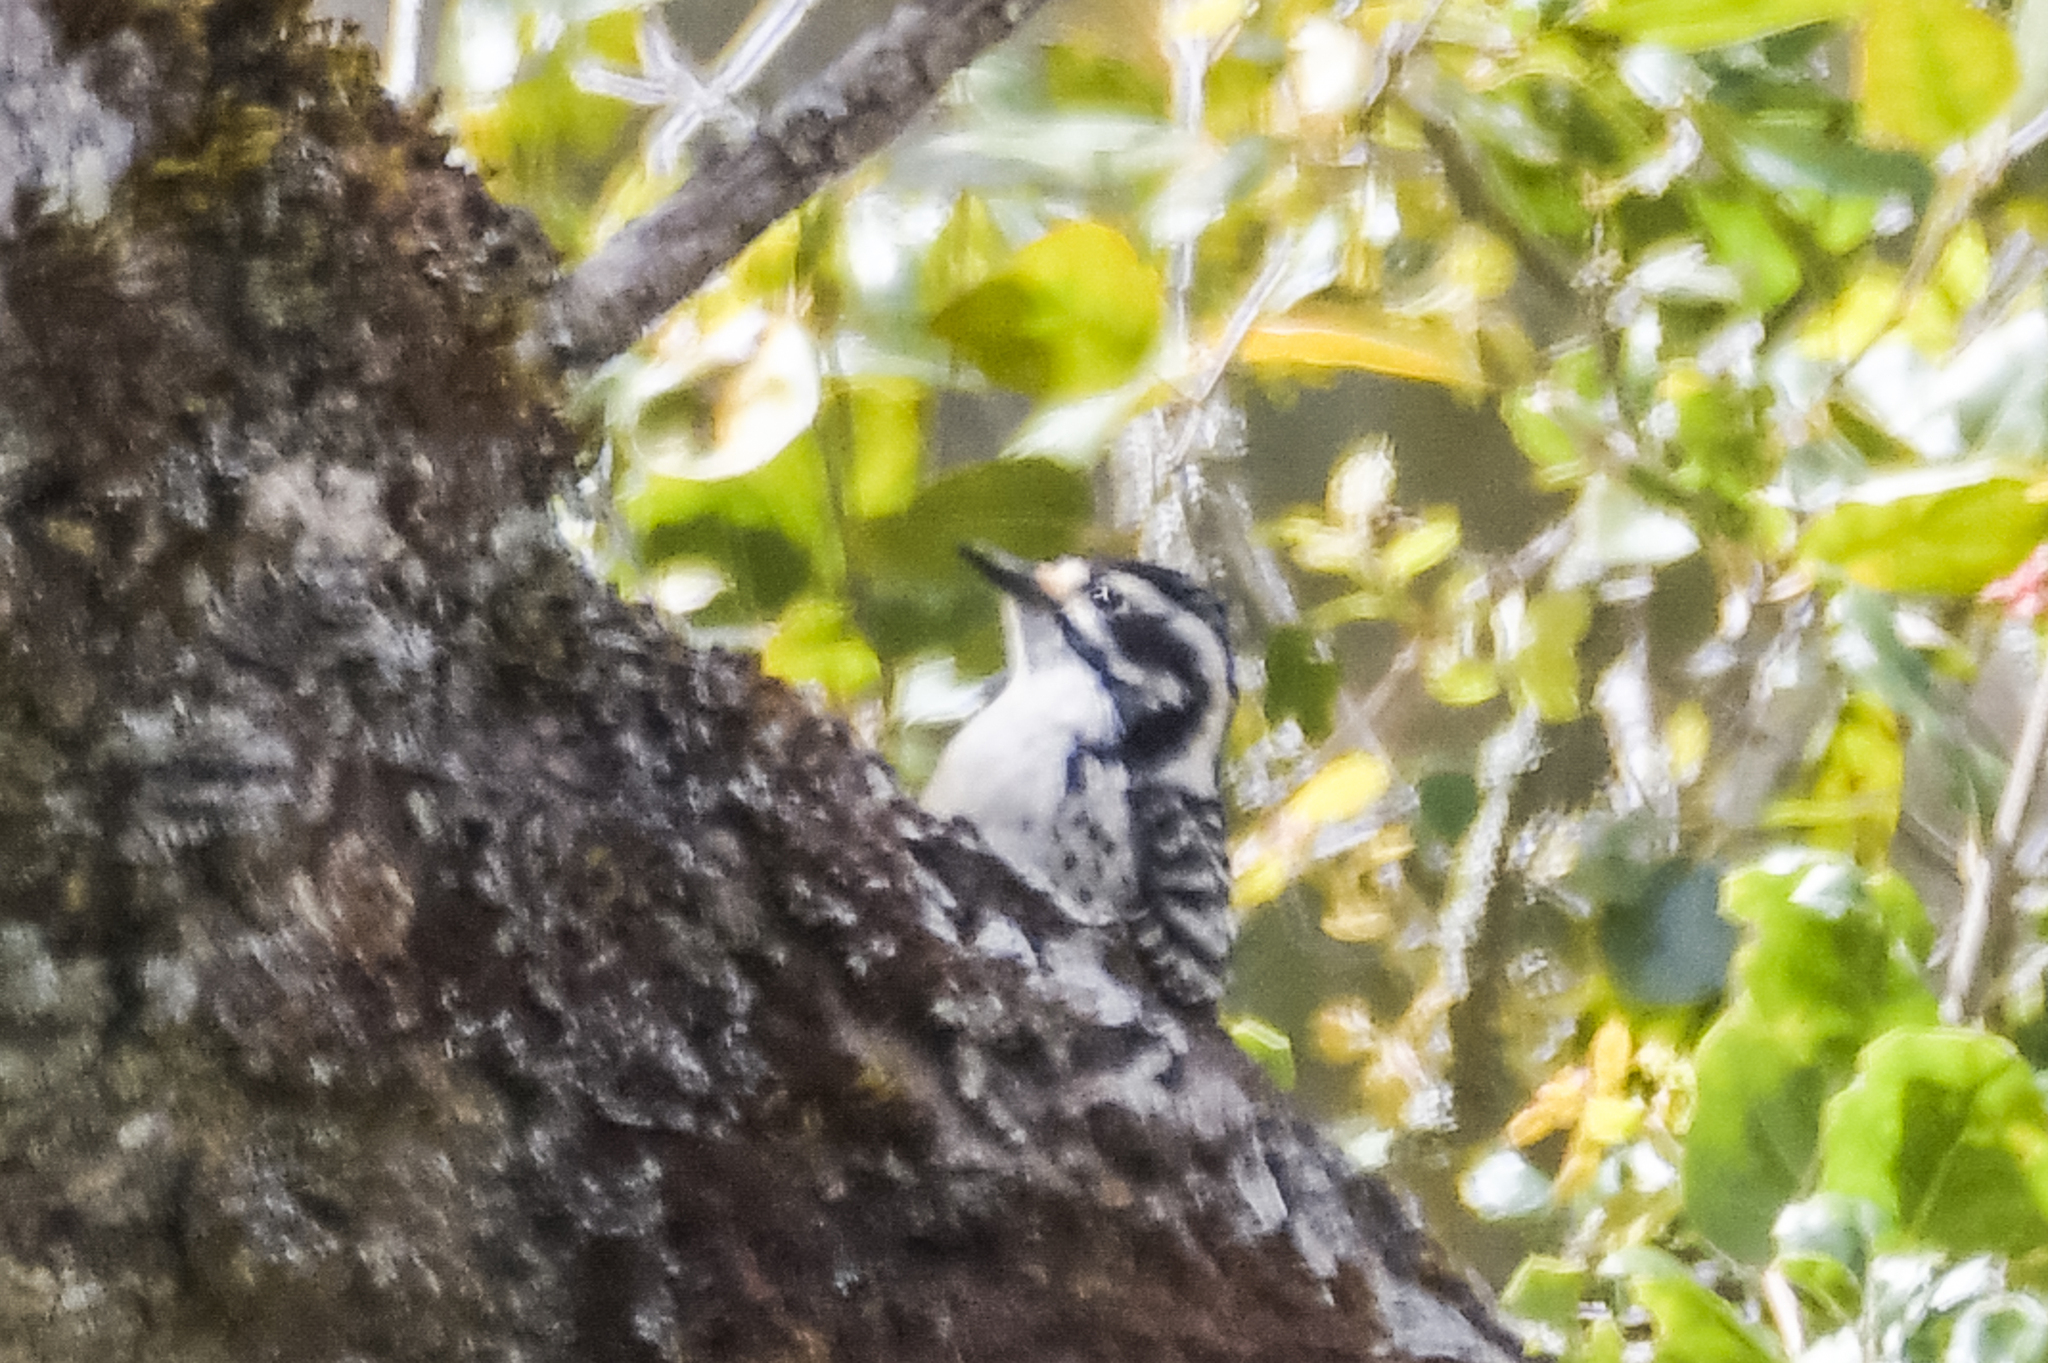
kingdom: Animalia
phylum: Chordata
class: Aves
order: Piciformes
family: Picidae
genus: Dryobates
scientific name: Dryobates nuttallii
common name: Nuttall's woodpecker
